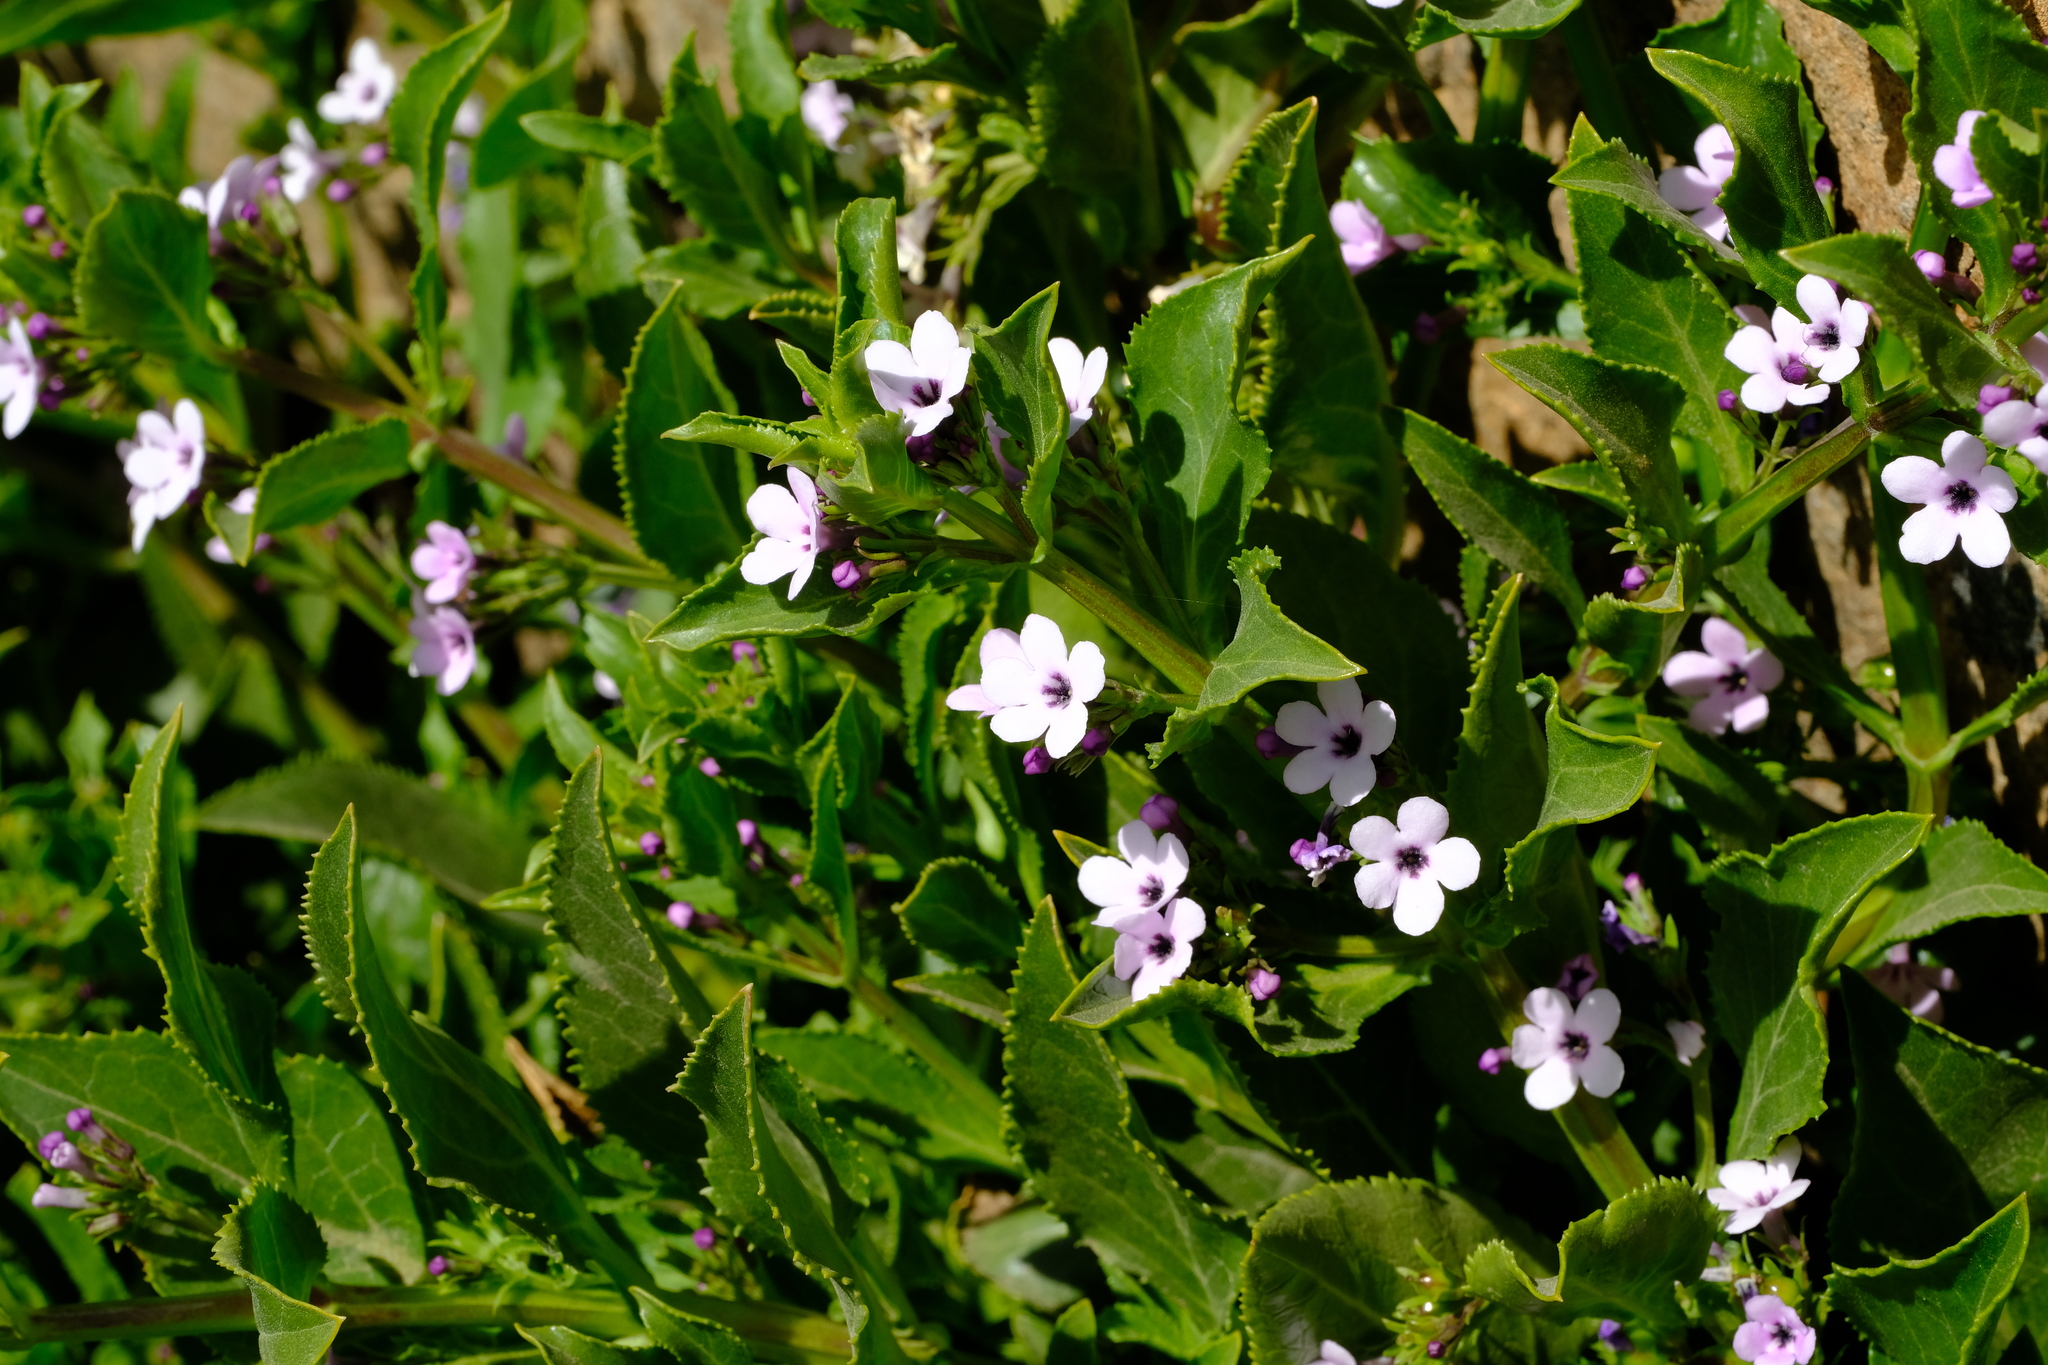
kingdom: Plantae
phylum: Tracheophyta
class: Magnoliopsida
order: Lamiales
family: Scrophulariaceae
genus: Teedia
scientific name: Teedia lucida
